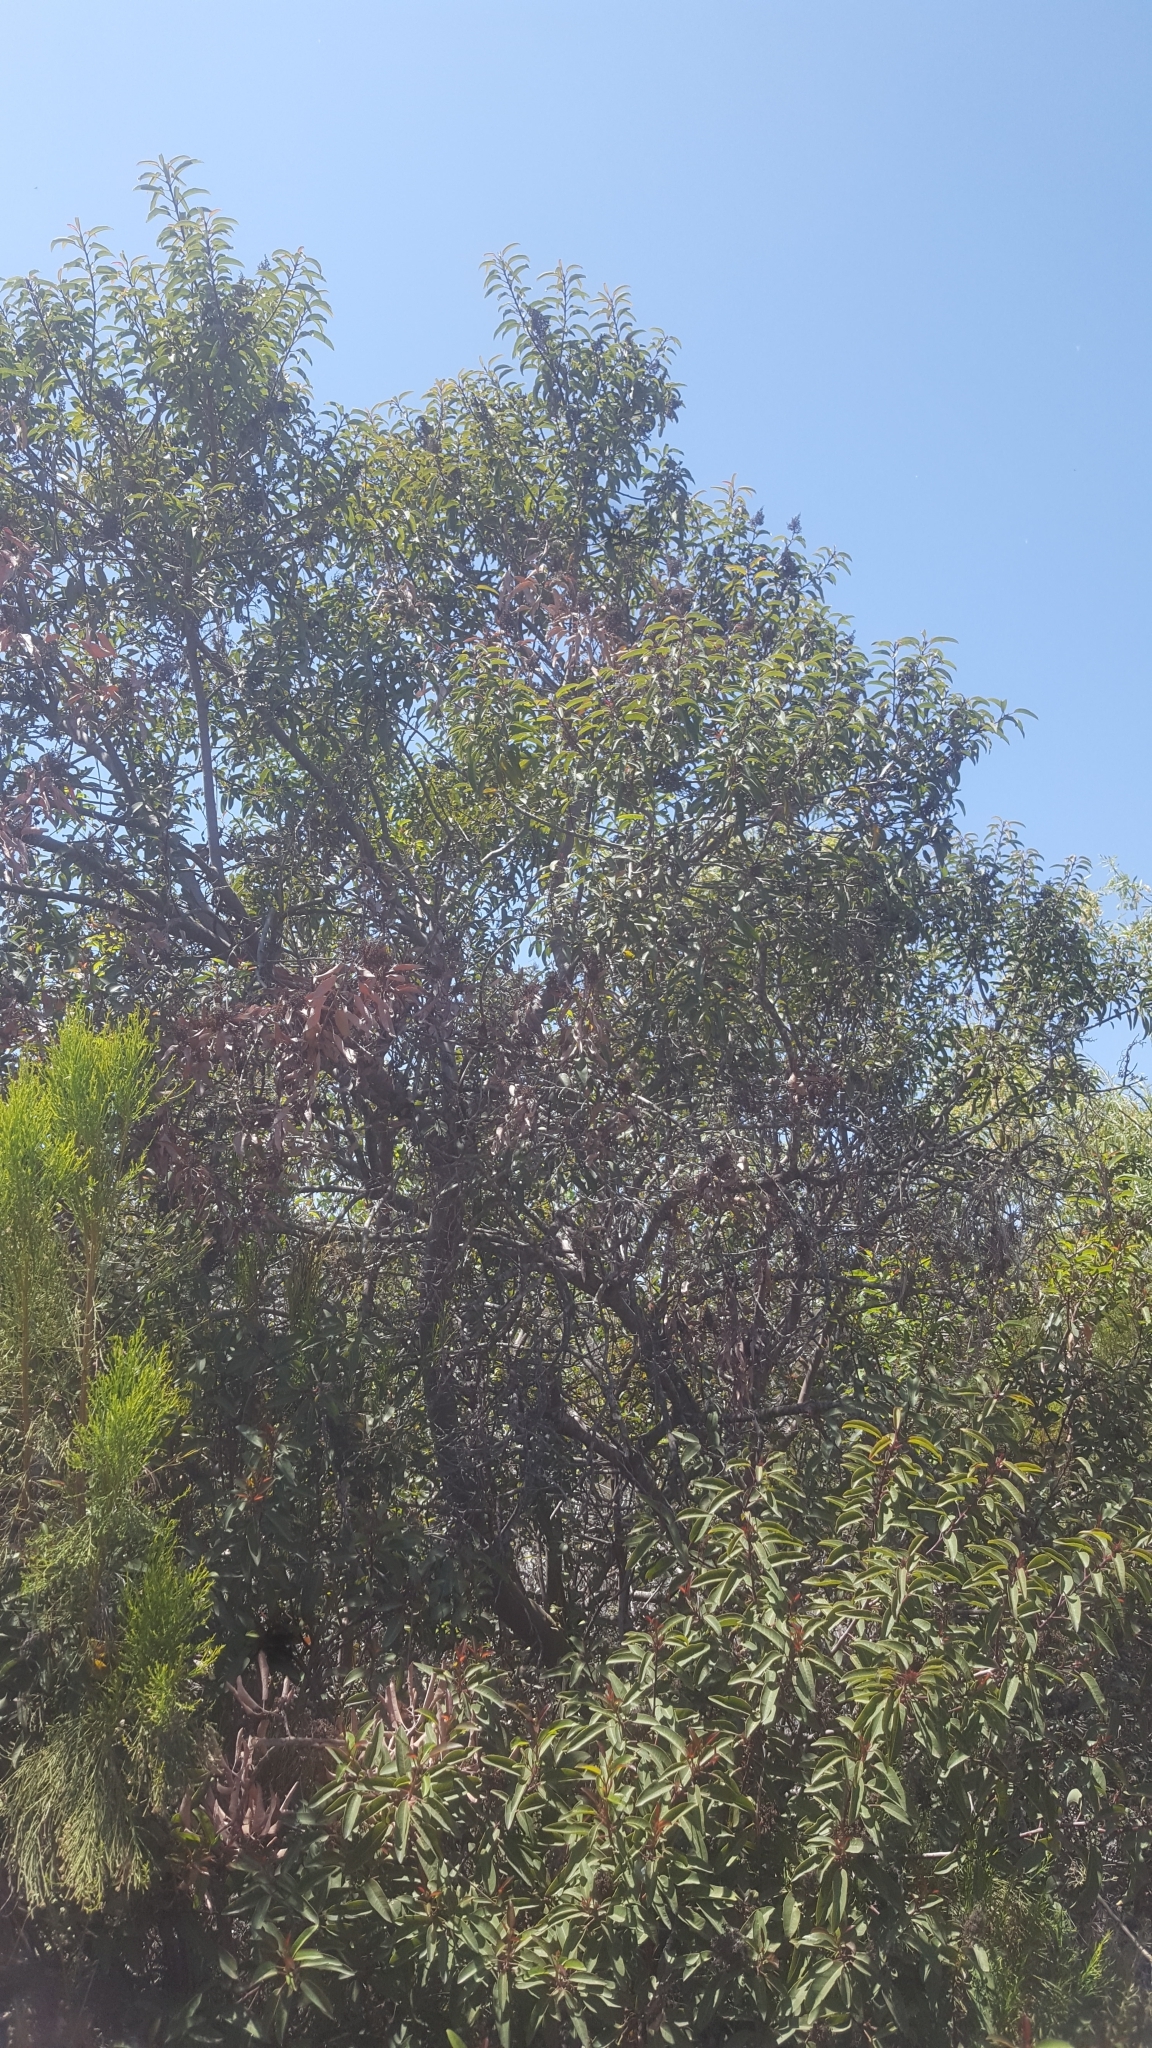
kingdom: Plantae
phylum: Tracheophyta
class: Magnoliopsida
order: Sapindales
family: Anacardiaceae
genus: Malosma
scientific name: Malosma laurina
